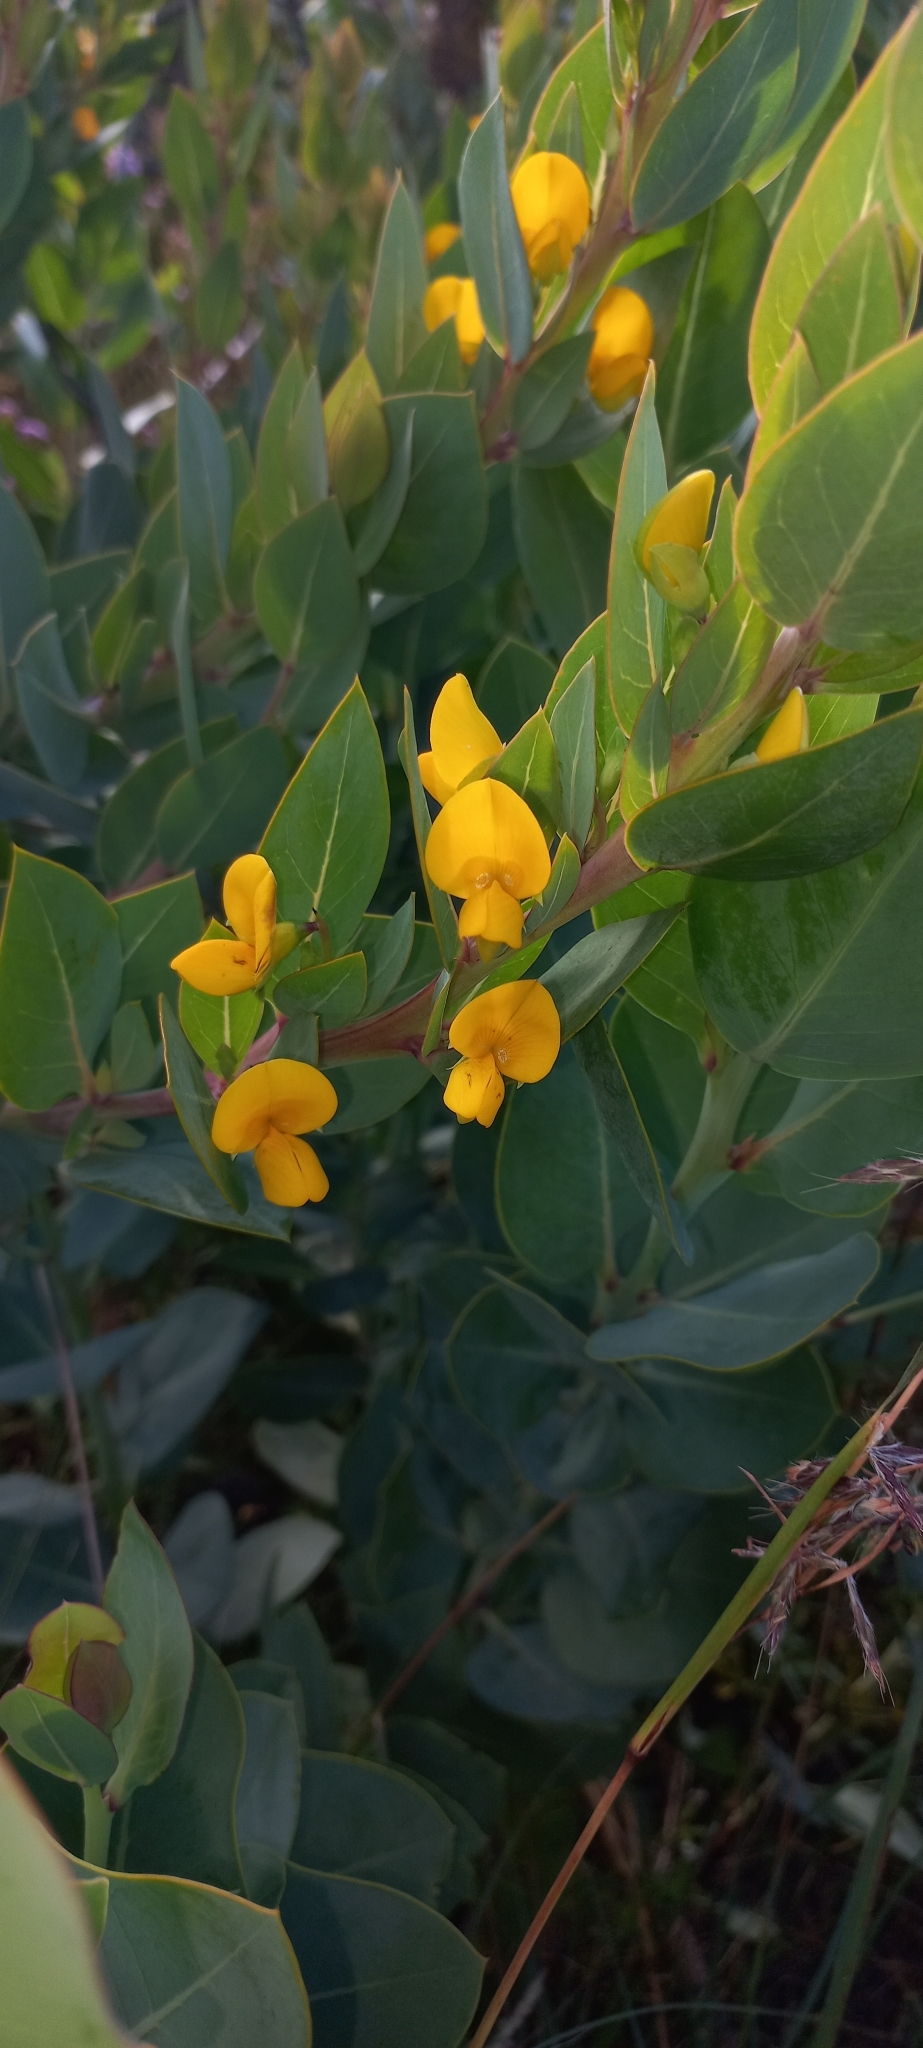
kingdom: Plantae
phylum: Tracheophyta
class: Magnoliopsida
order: Fabales
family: Fabaceae
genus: Rafnia
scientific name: Rafnia triflora
